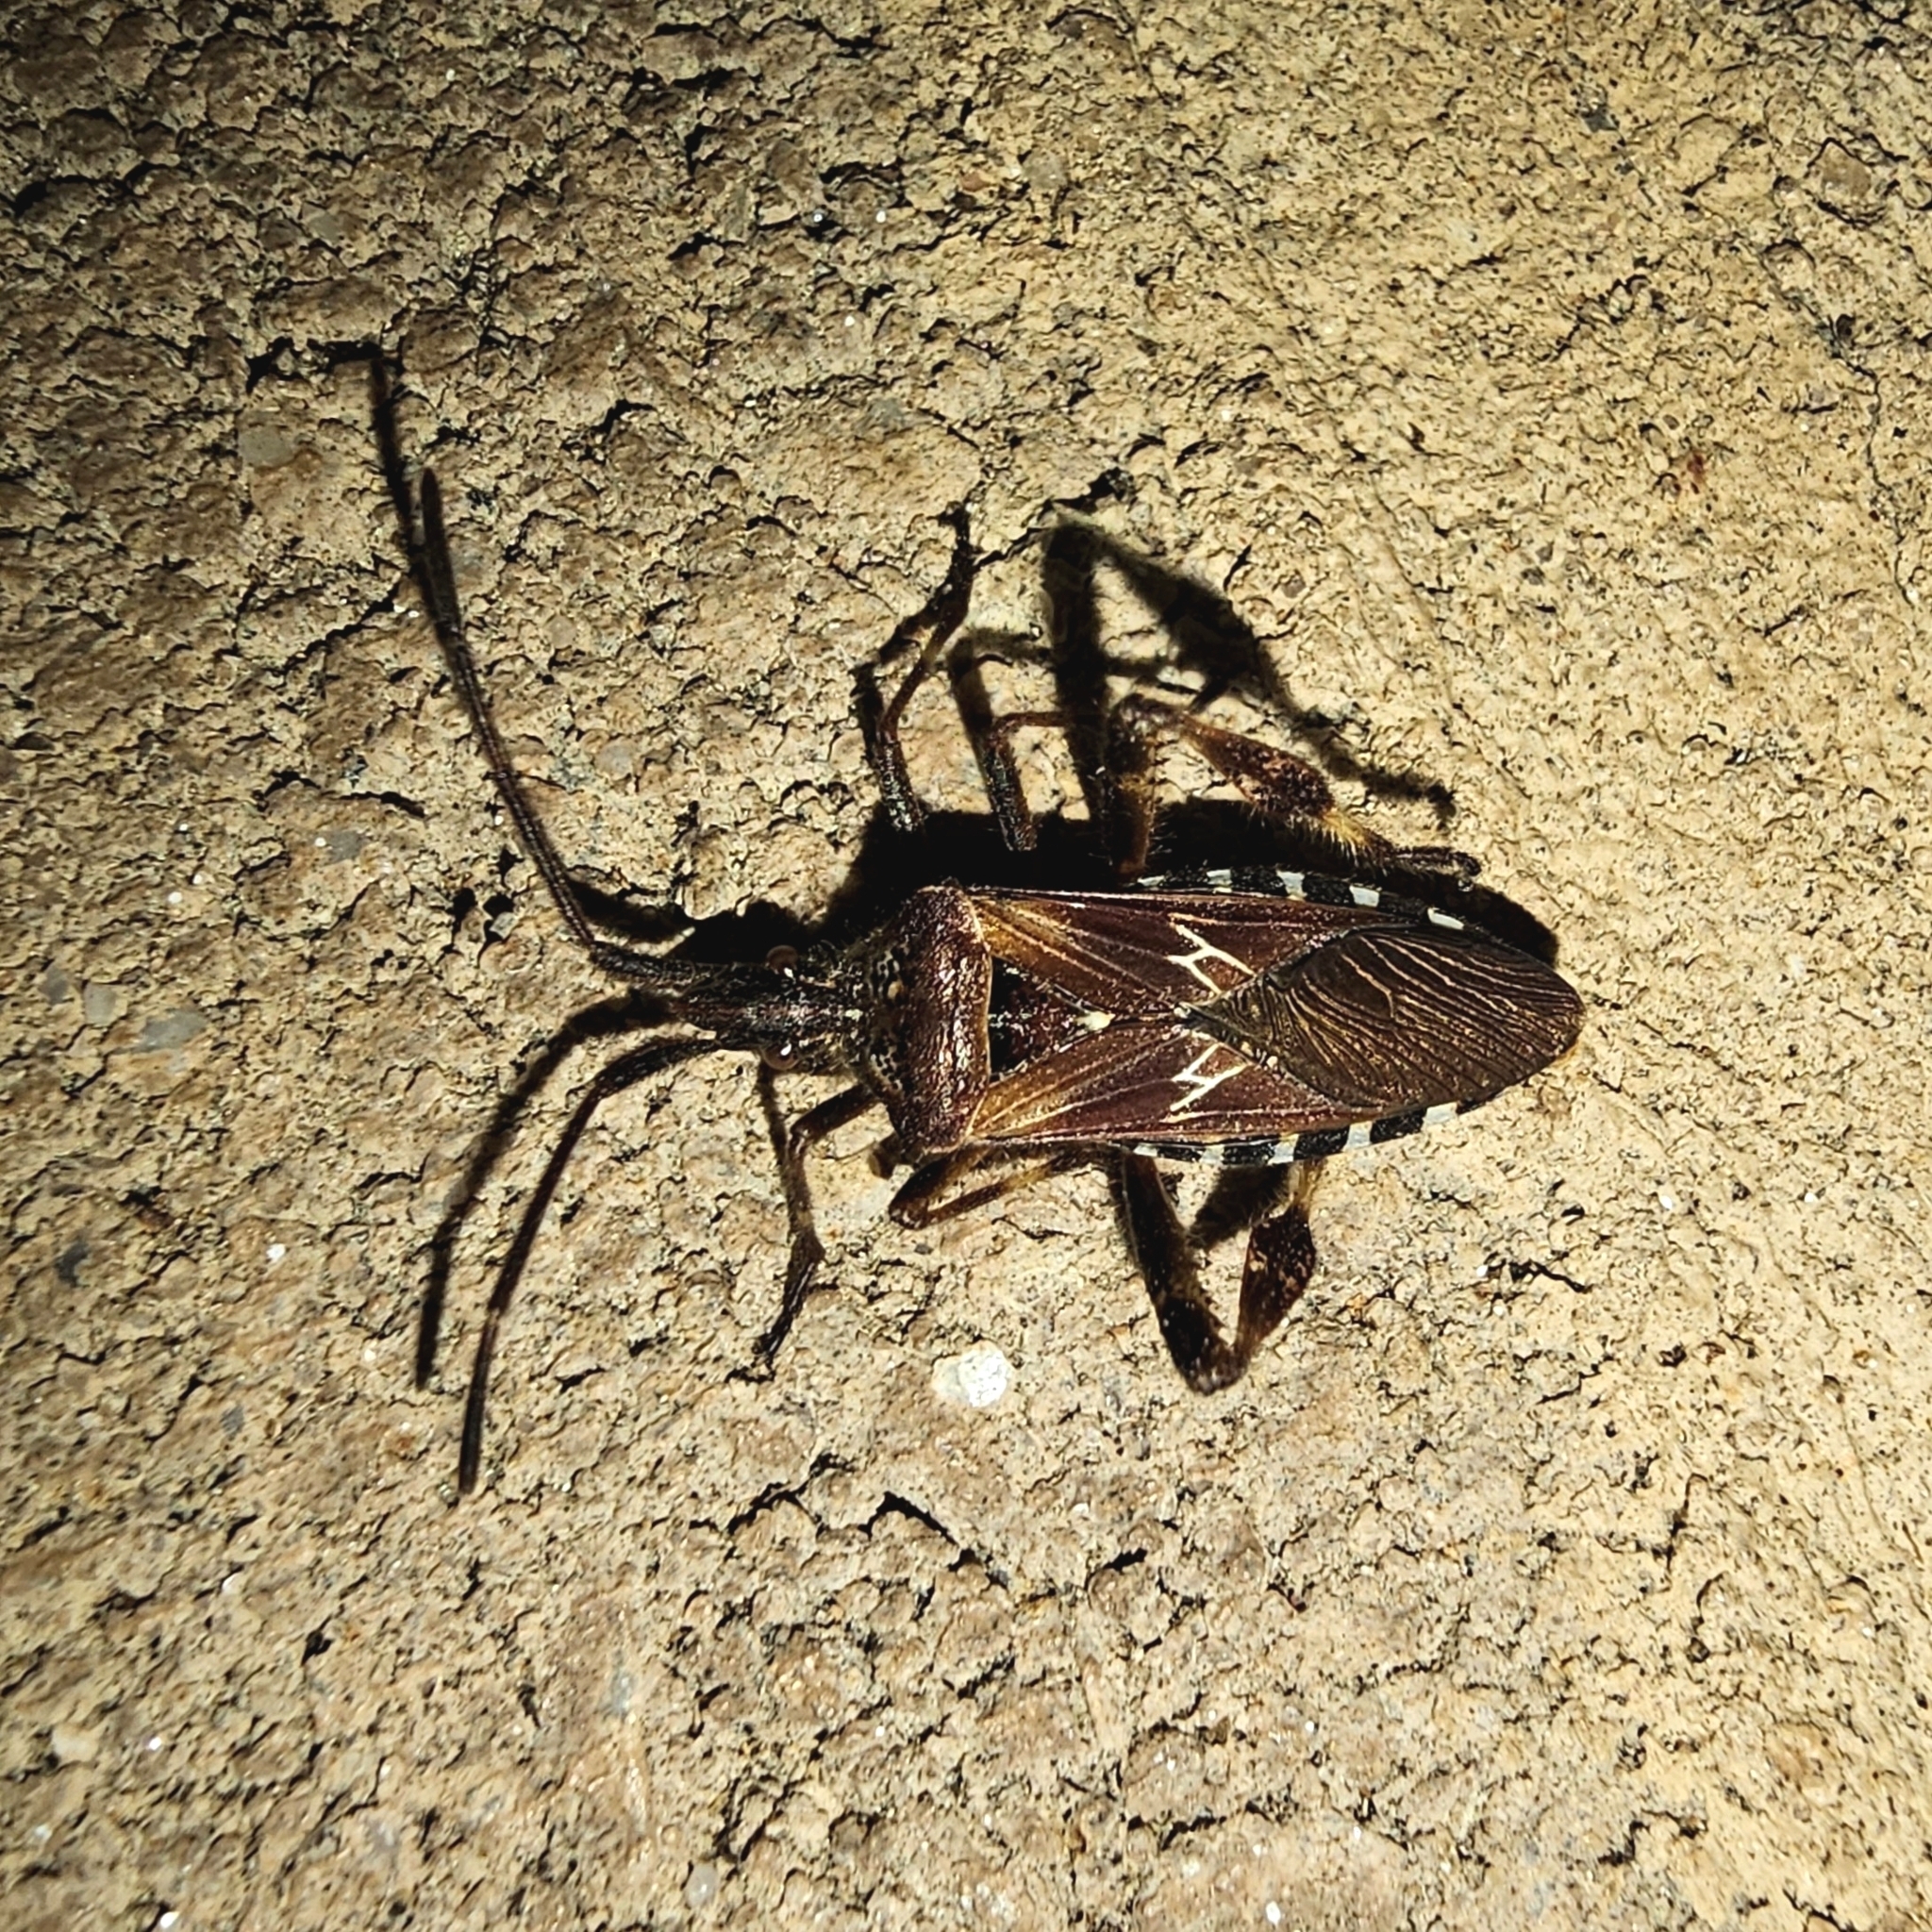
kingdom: Animalia
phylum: Arthropoda
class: Insecta
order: Hemiptera
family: Coreidae
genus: Leptoglossus
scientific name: Leptoglossus occidentalis
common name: Western conifer-seed bug
